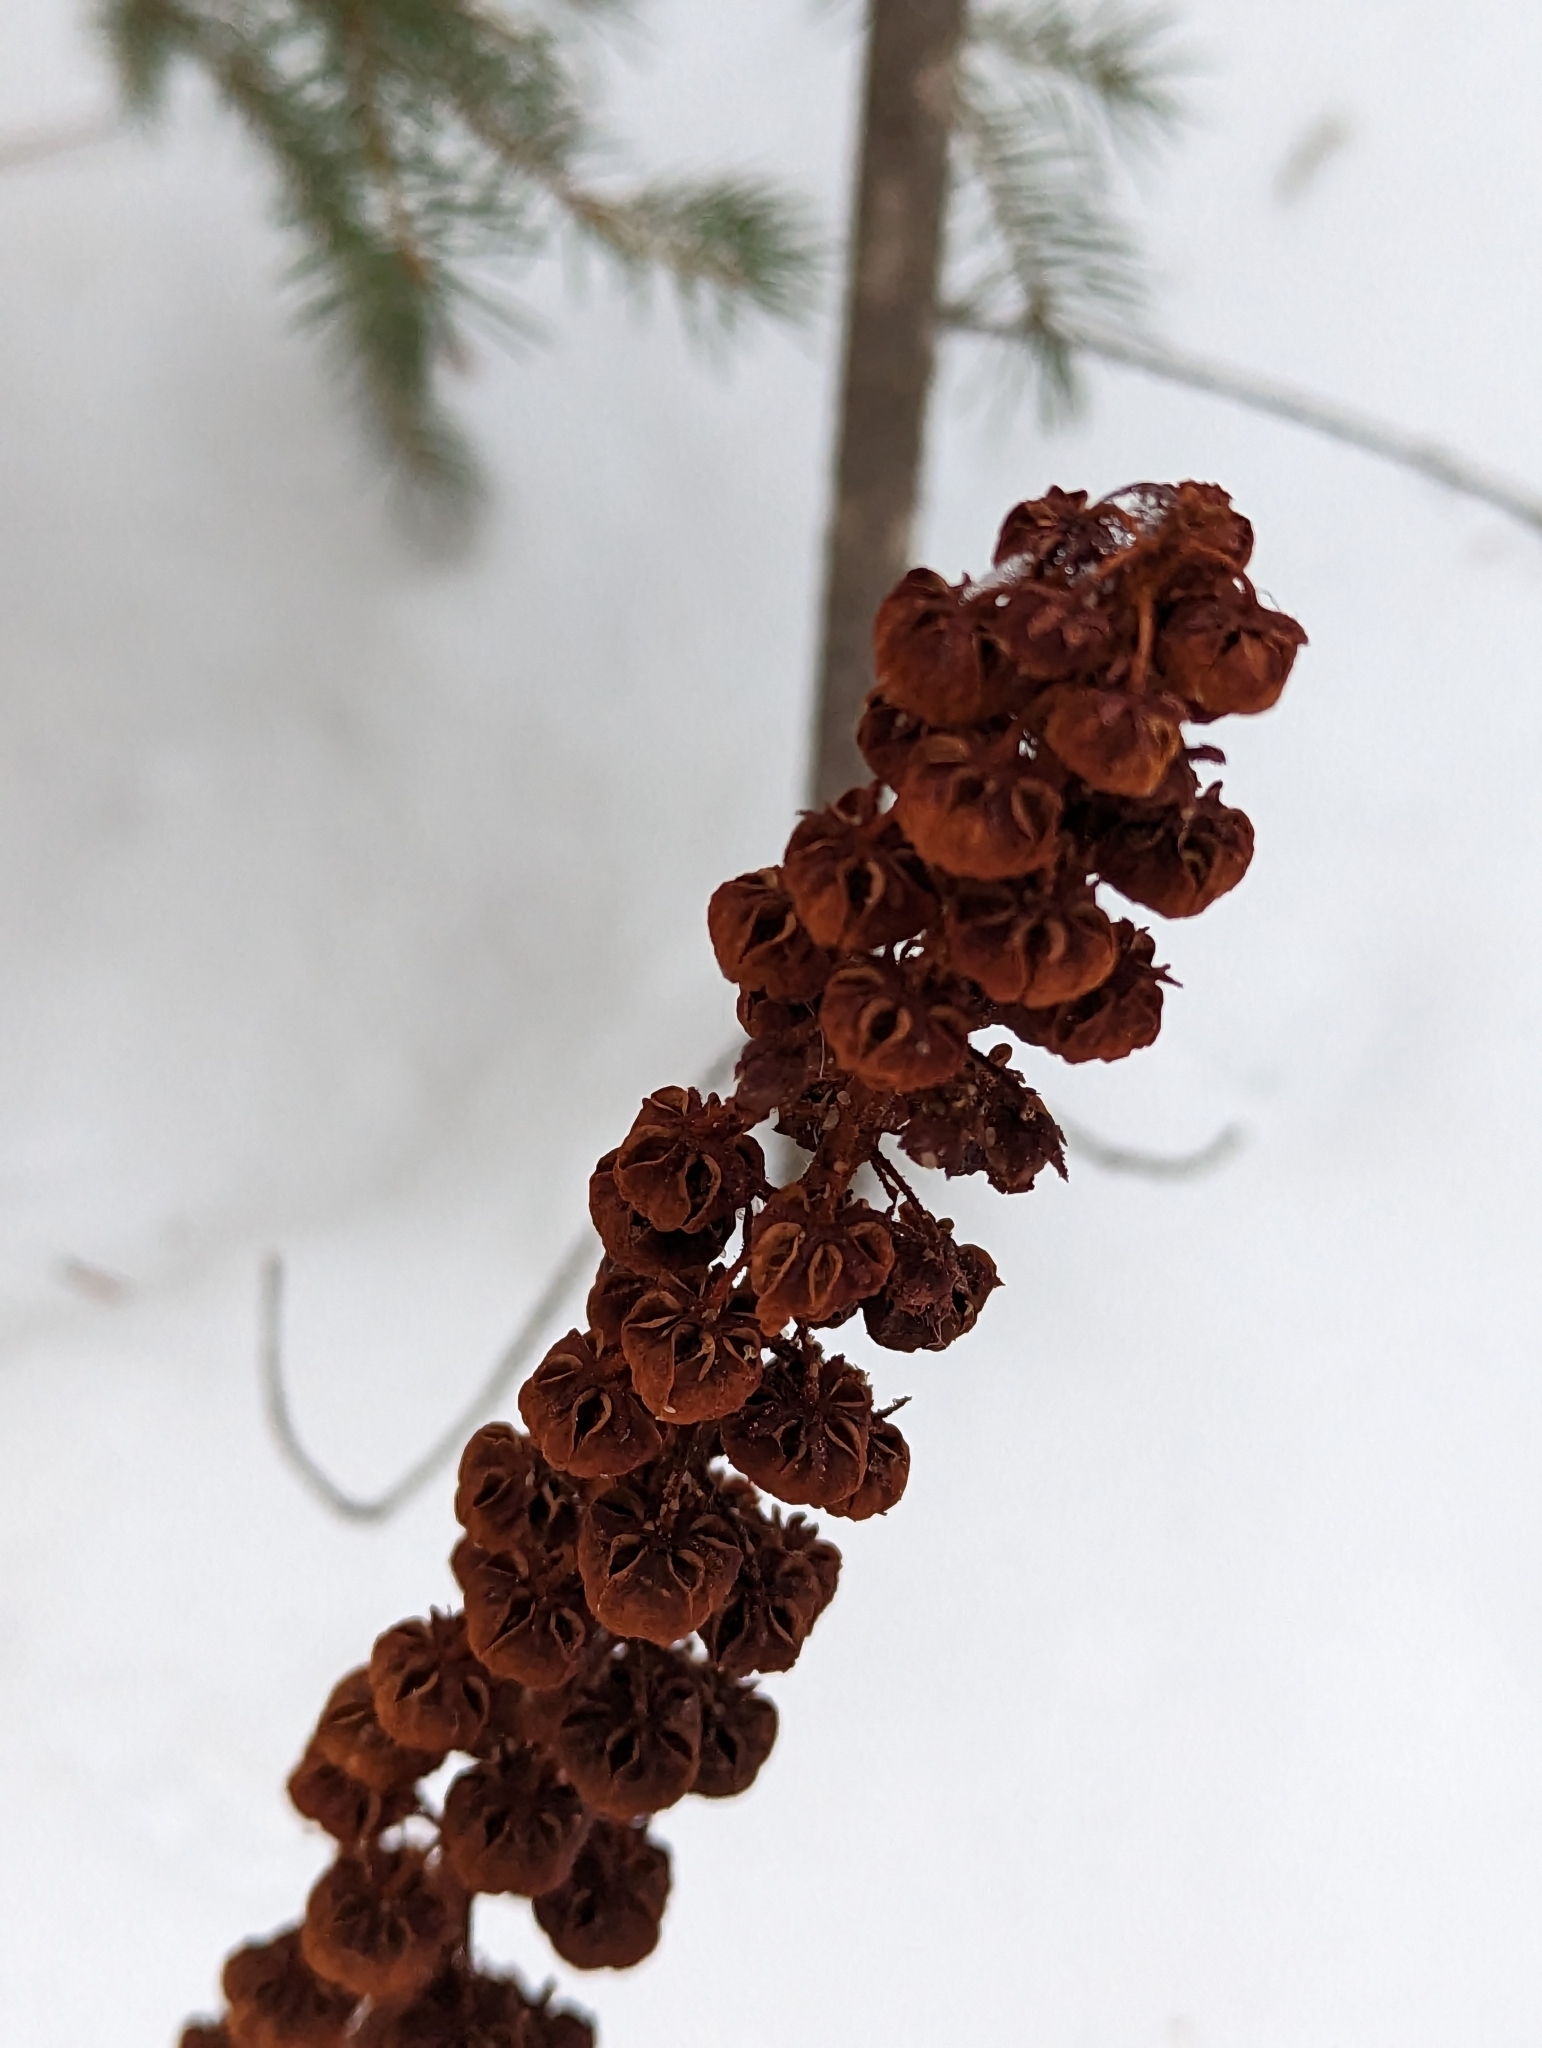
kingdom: Plantae
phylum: Tracheophyta
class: Magnoliopsida
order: Ericales
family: Ericaceae
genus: Pterospora
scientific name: Pterospora andromedea
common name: Giant bird's-nest
